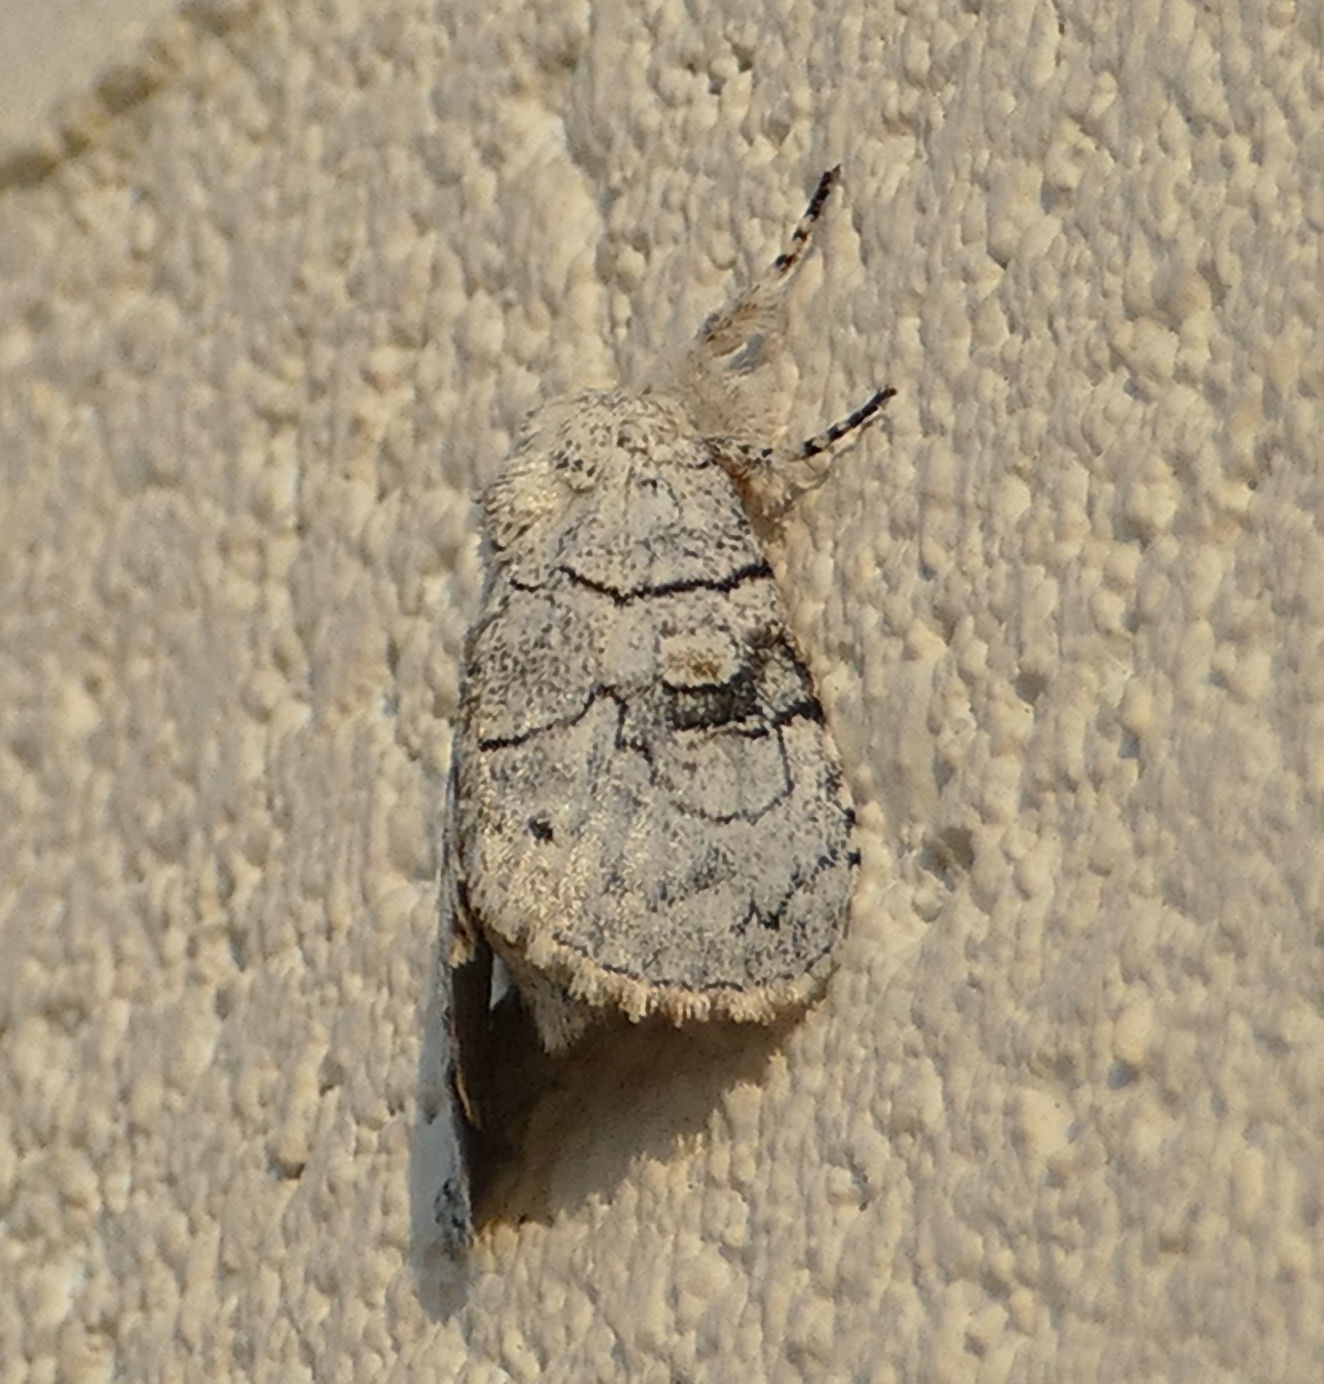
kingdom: Animalia
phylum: Arthropoda
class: Insecta
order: Lepidoptera
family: Noctuidae
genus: Charadra
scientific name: Charadra dispulsa
